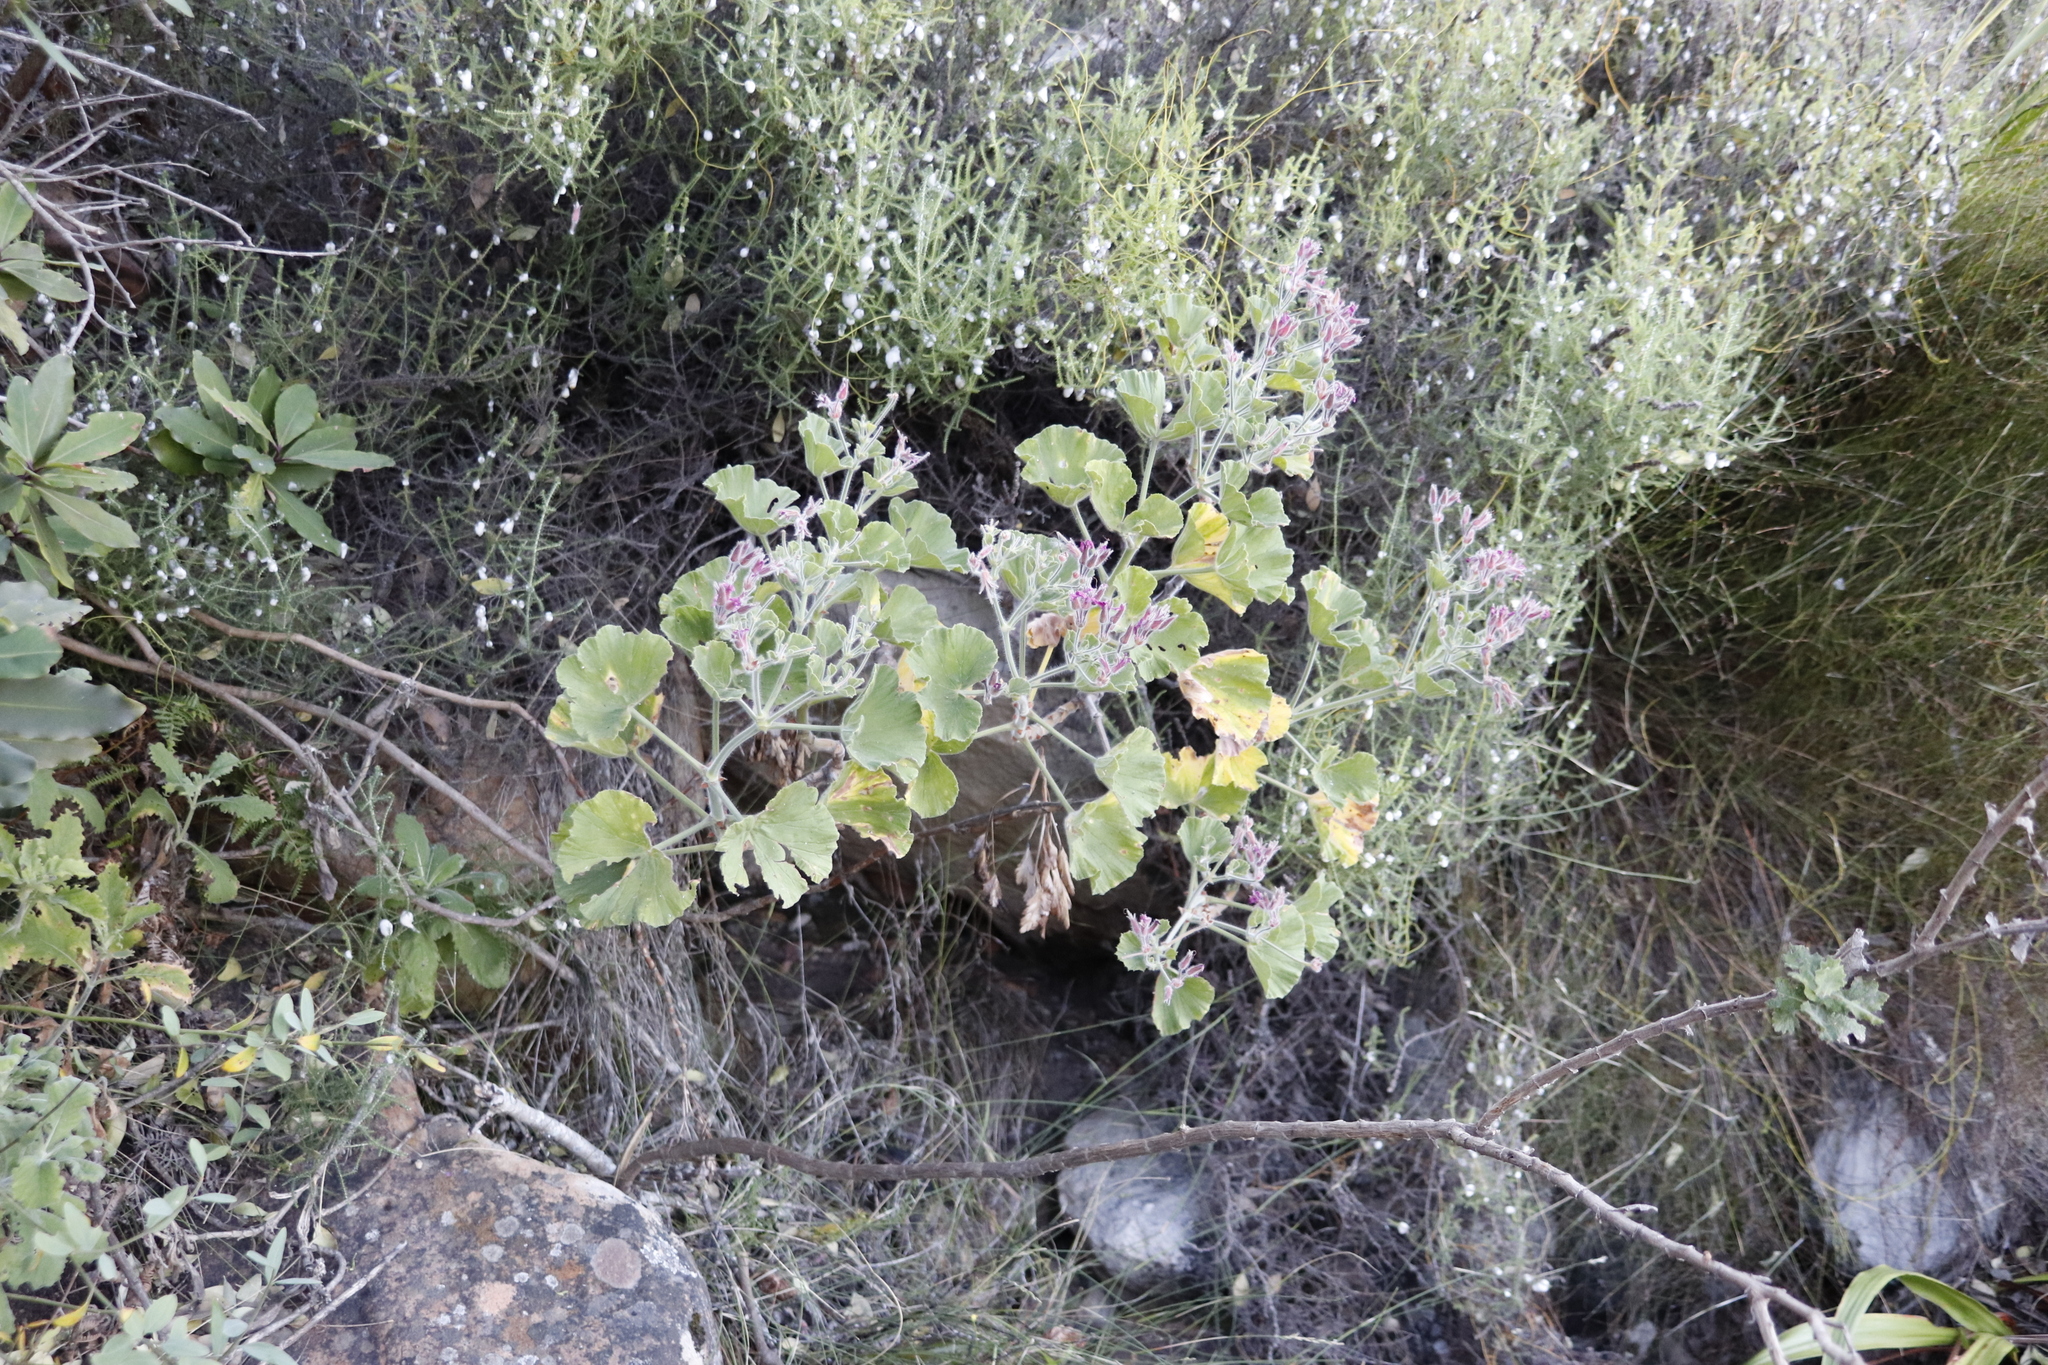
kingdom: Plantae
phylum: Tracheophyta
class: Magnoliopsida
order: Geraniales
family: Geraniaceae
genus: Pelargonium
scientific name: Pelargonium cucullatum
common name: Tree pelargonium
